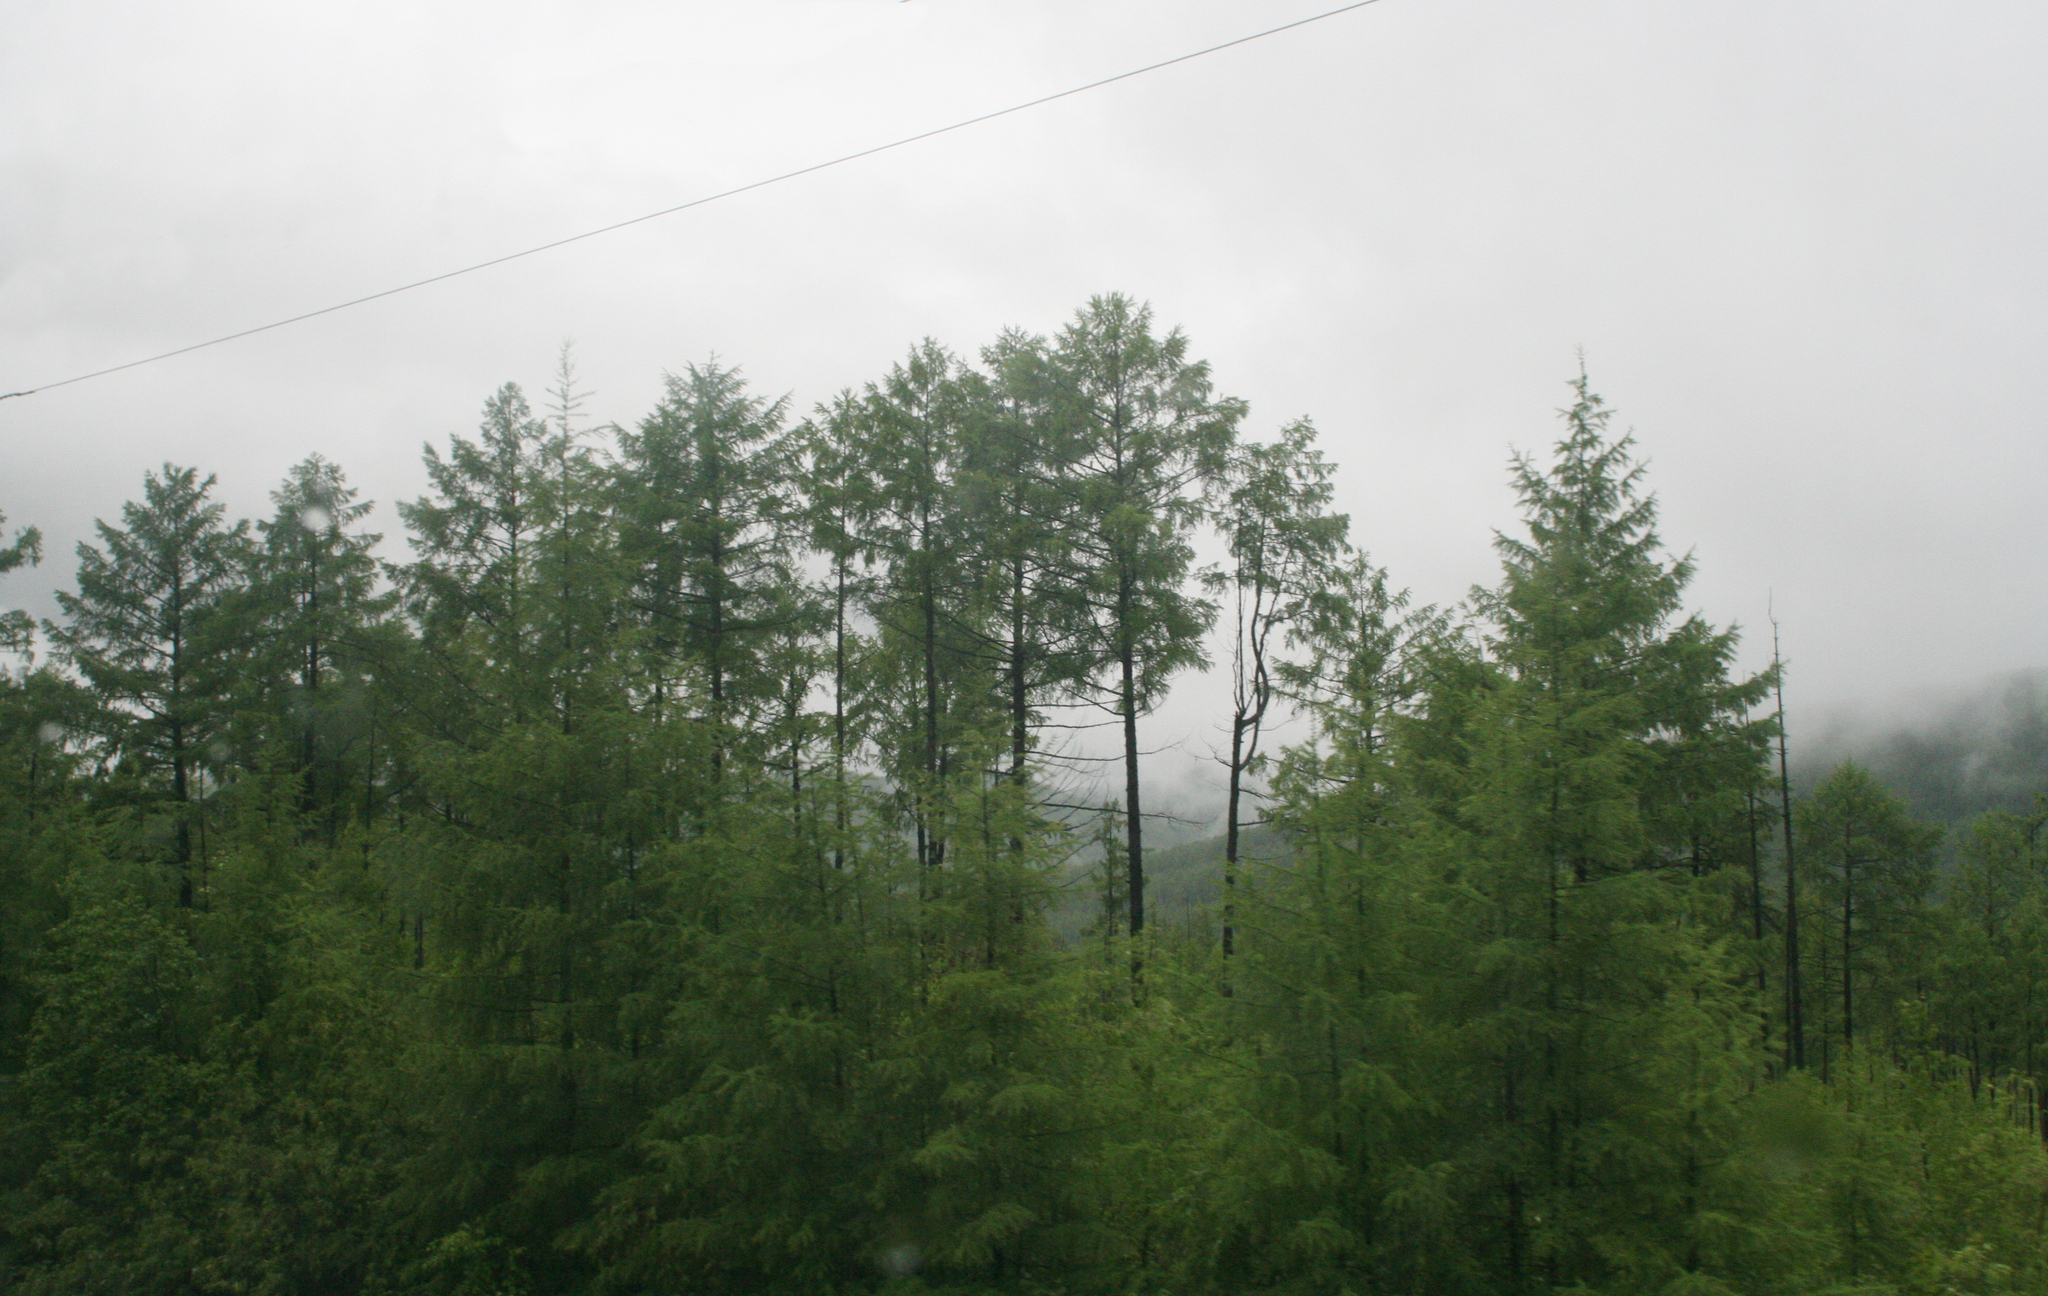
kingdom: Plantae
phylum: Tracheophyta
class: Pinopsida
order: Pinales
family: Pinaceae
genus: Larix
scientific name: Larix gmelinii
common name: Dahurian larch
